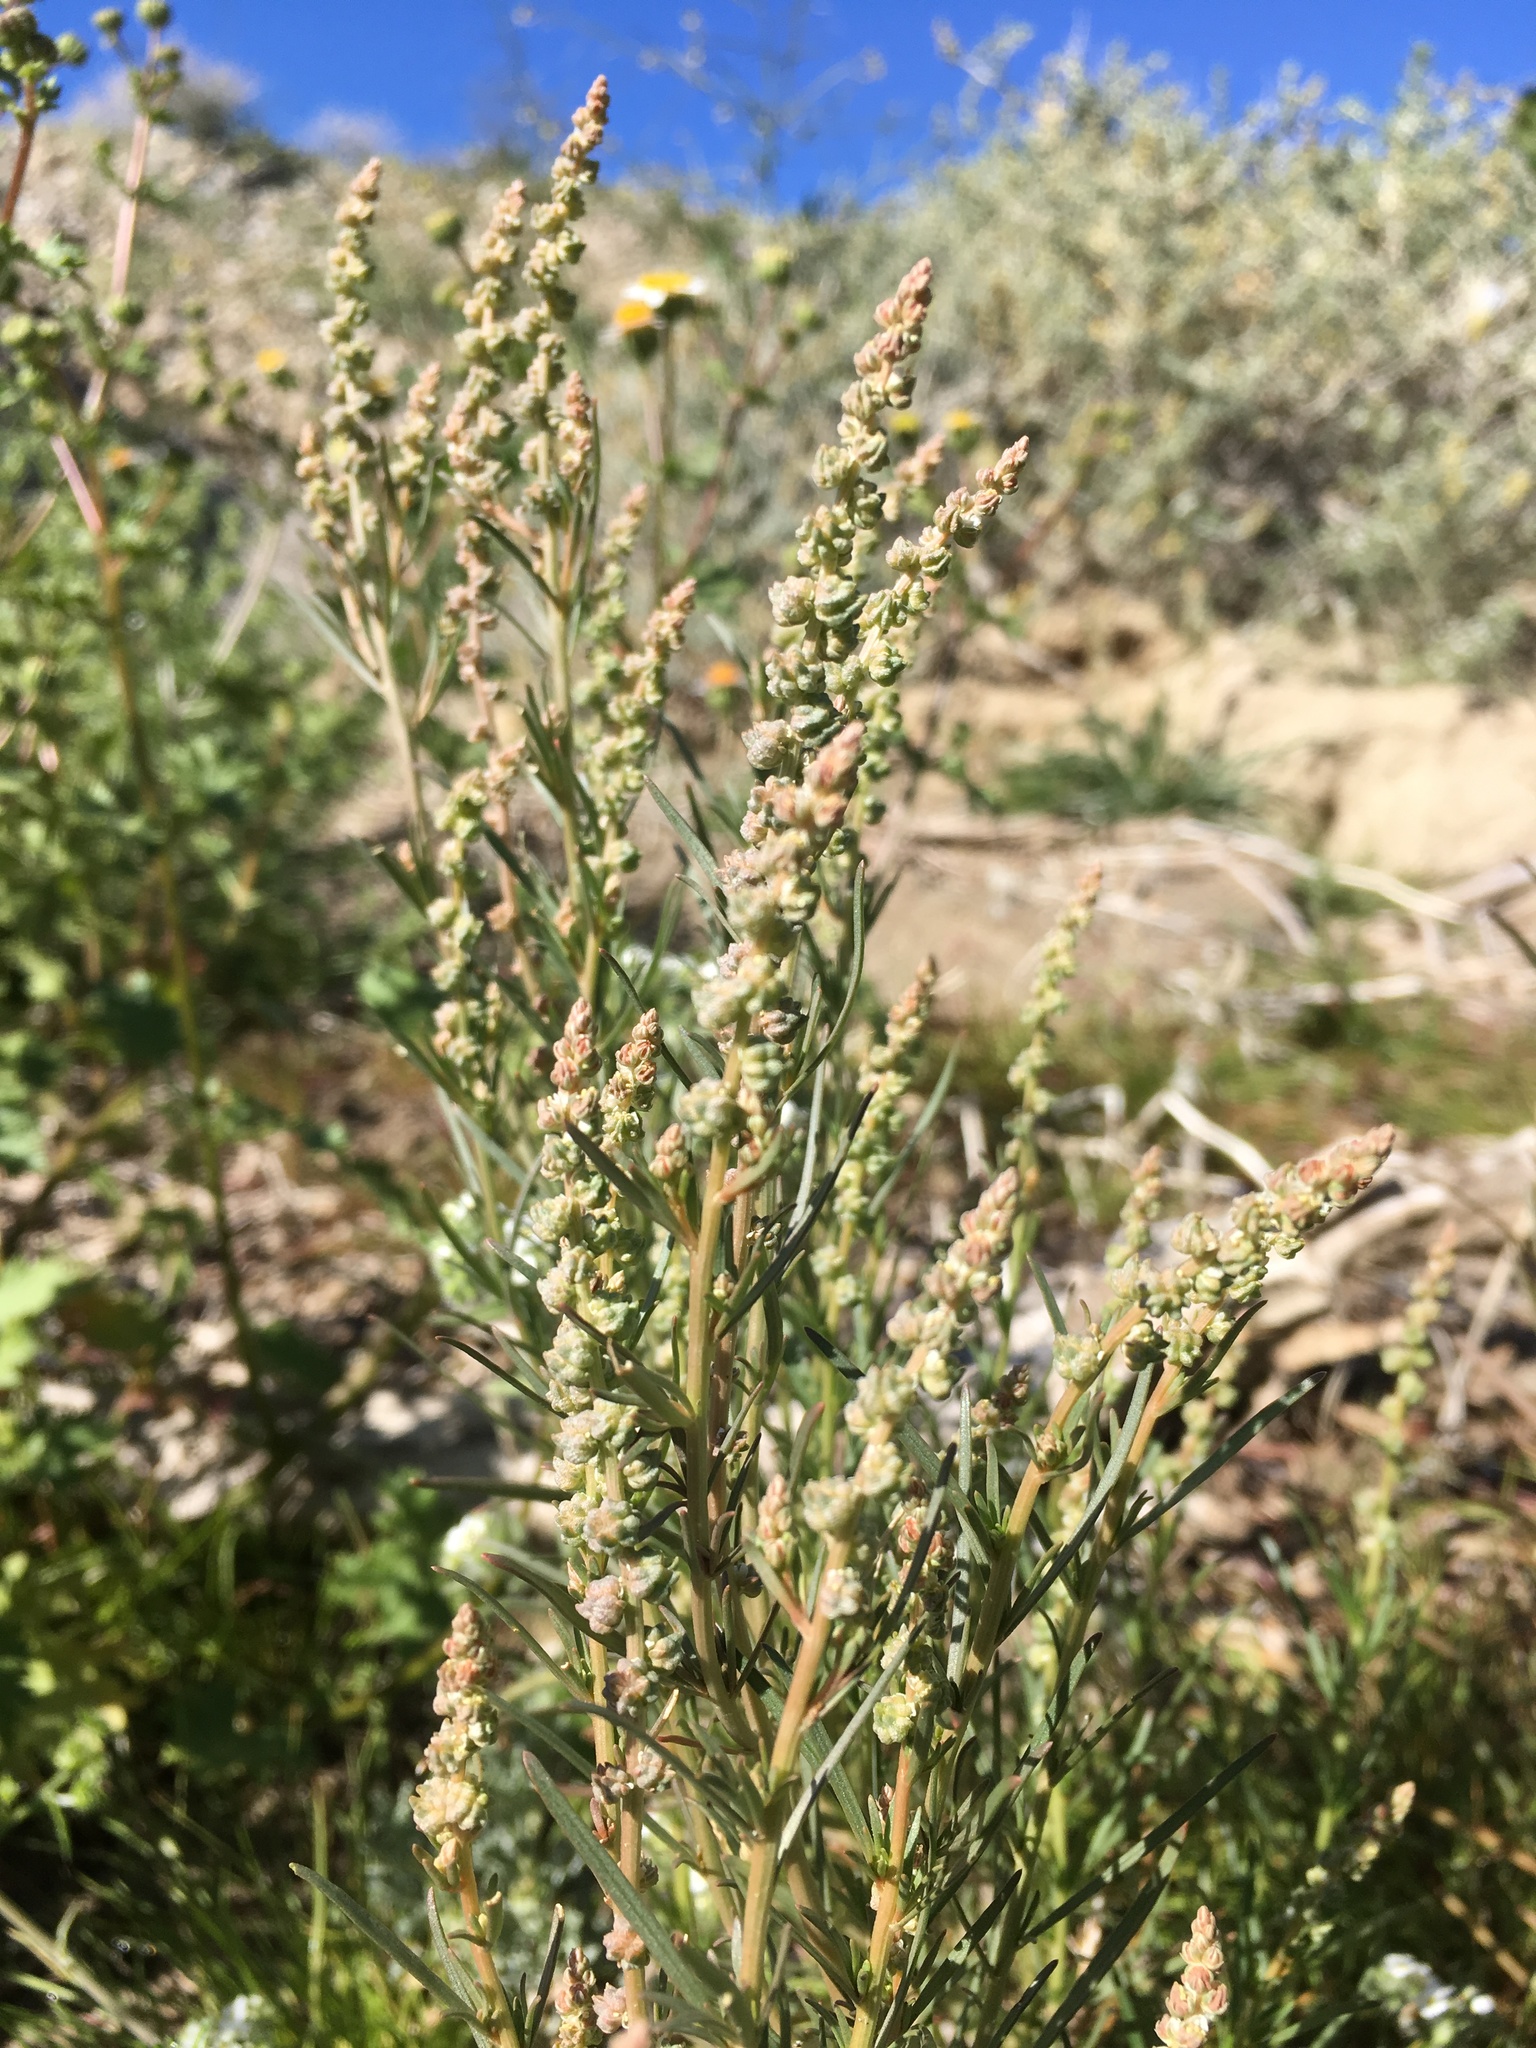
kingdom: Plantae
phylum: Tracheophyta
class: Magnoliopsida
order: Brassicales
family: Resedaceae
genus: Oligomeris
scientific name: Oligomeris linifolia
